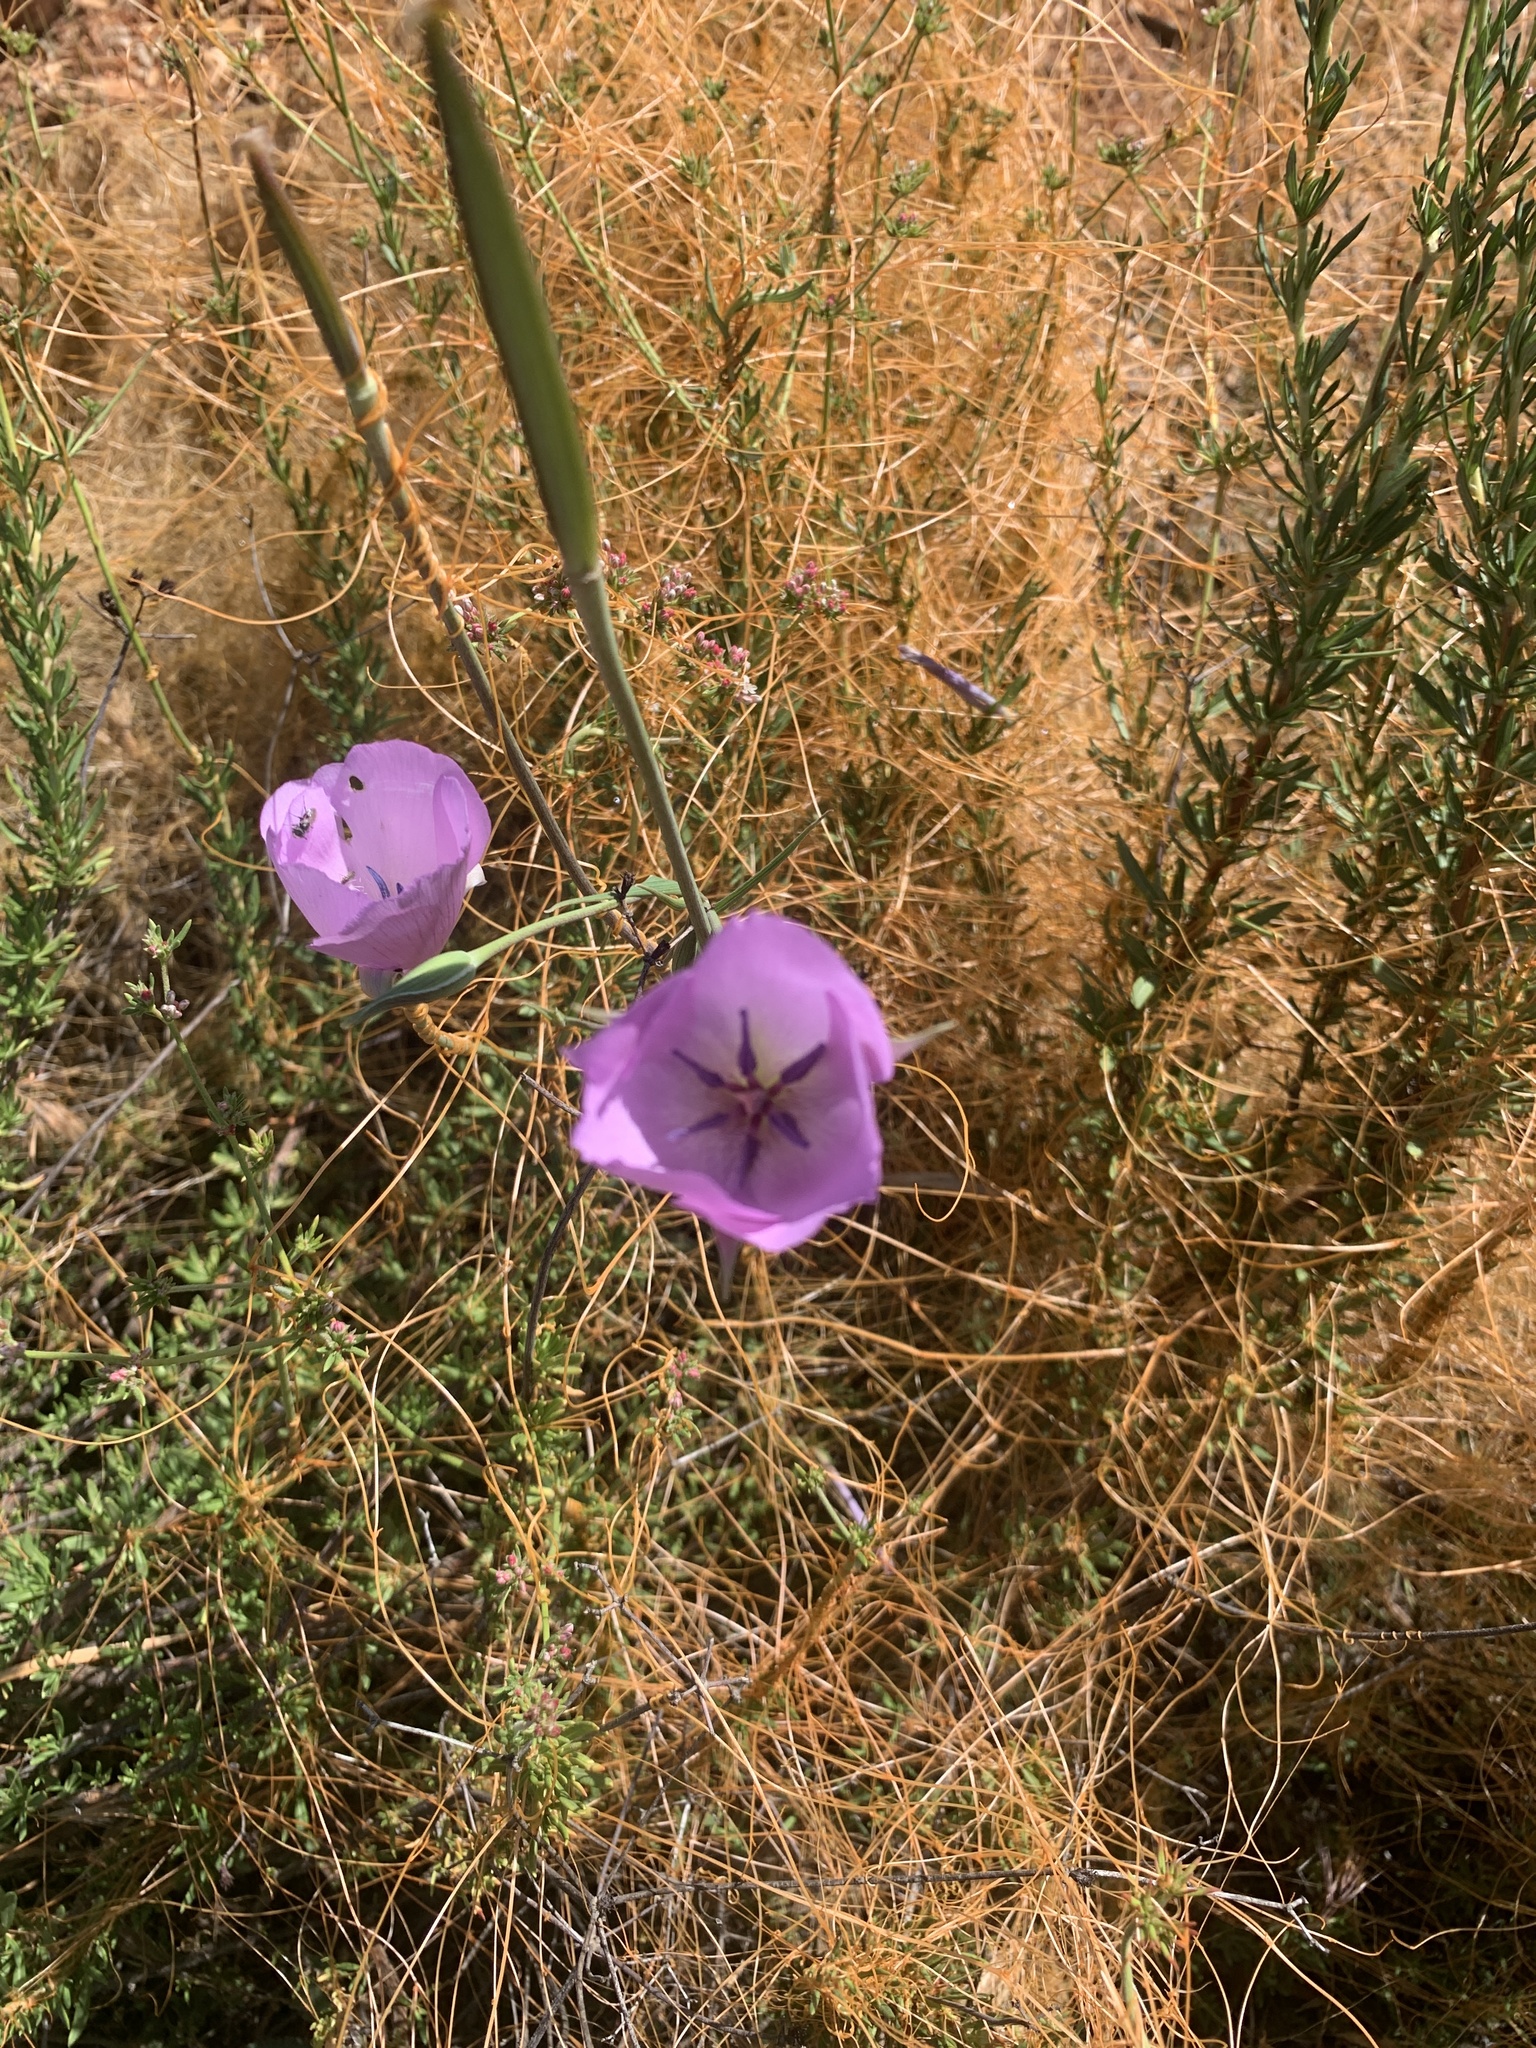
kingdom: Plantae
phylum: Tracheophyta
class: Liliopsida
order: Liliales
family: Liliaceae
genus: Calochortus
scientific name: Calochortus splendens
